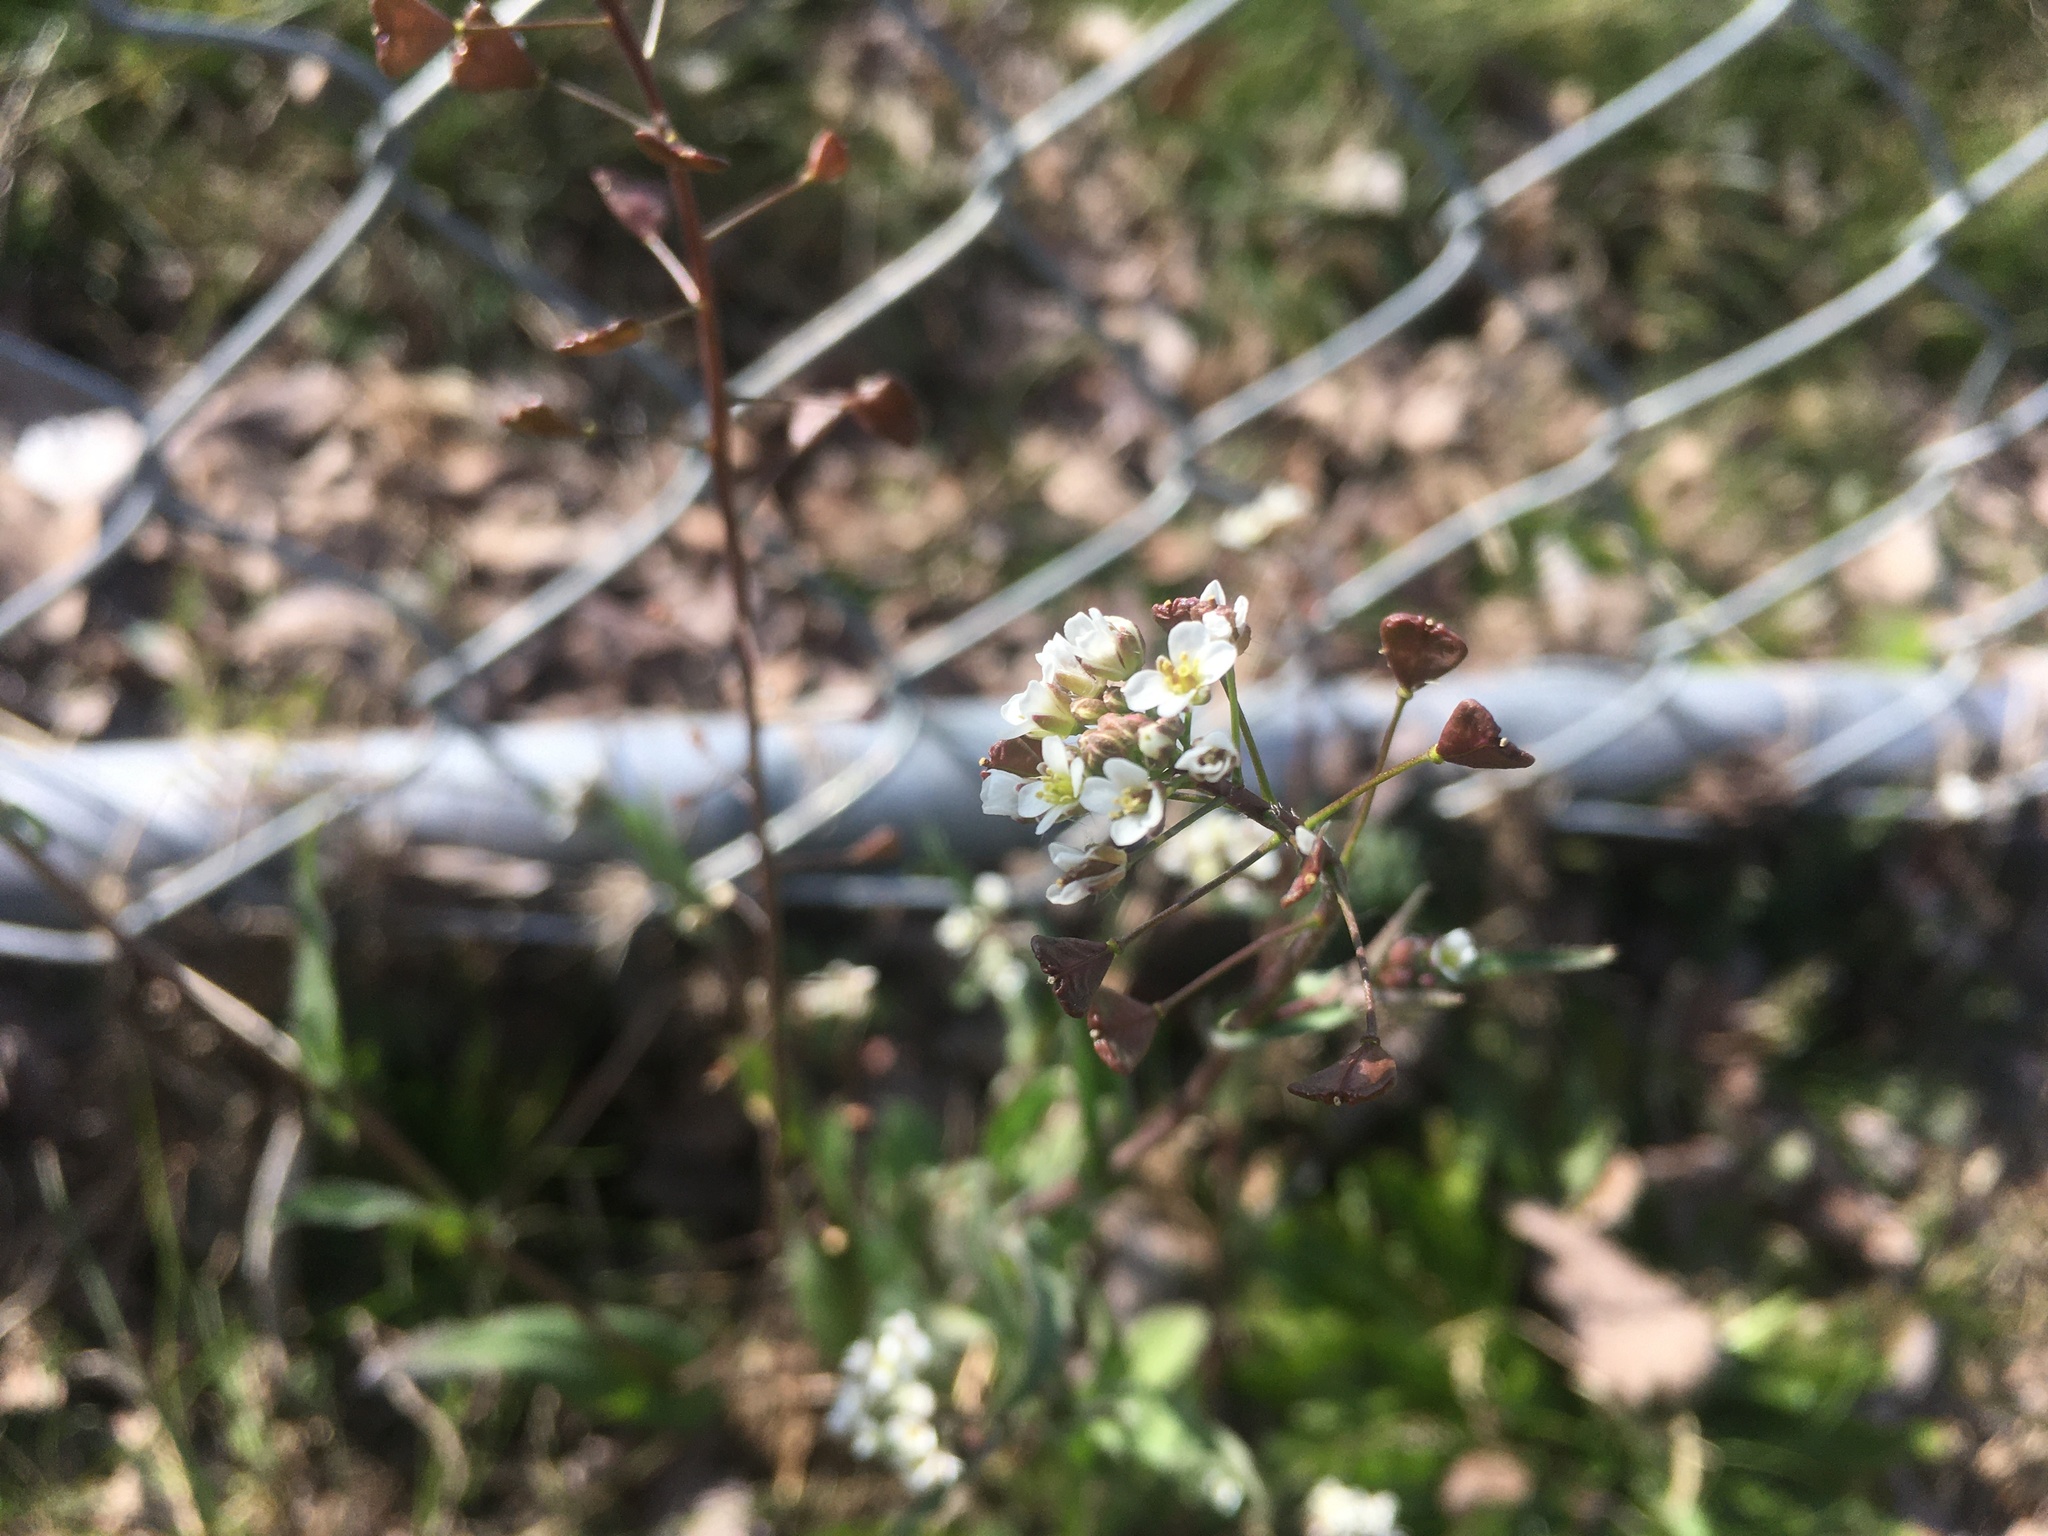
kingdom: Plantae
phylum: Tracheophyta
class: Magnoliopsida
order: Brassicales
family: Brassicaceae
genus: Capsella
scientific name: Capsella bursa-pastoris
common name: Shepherd's purse
